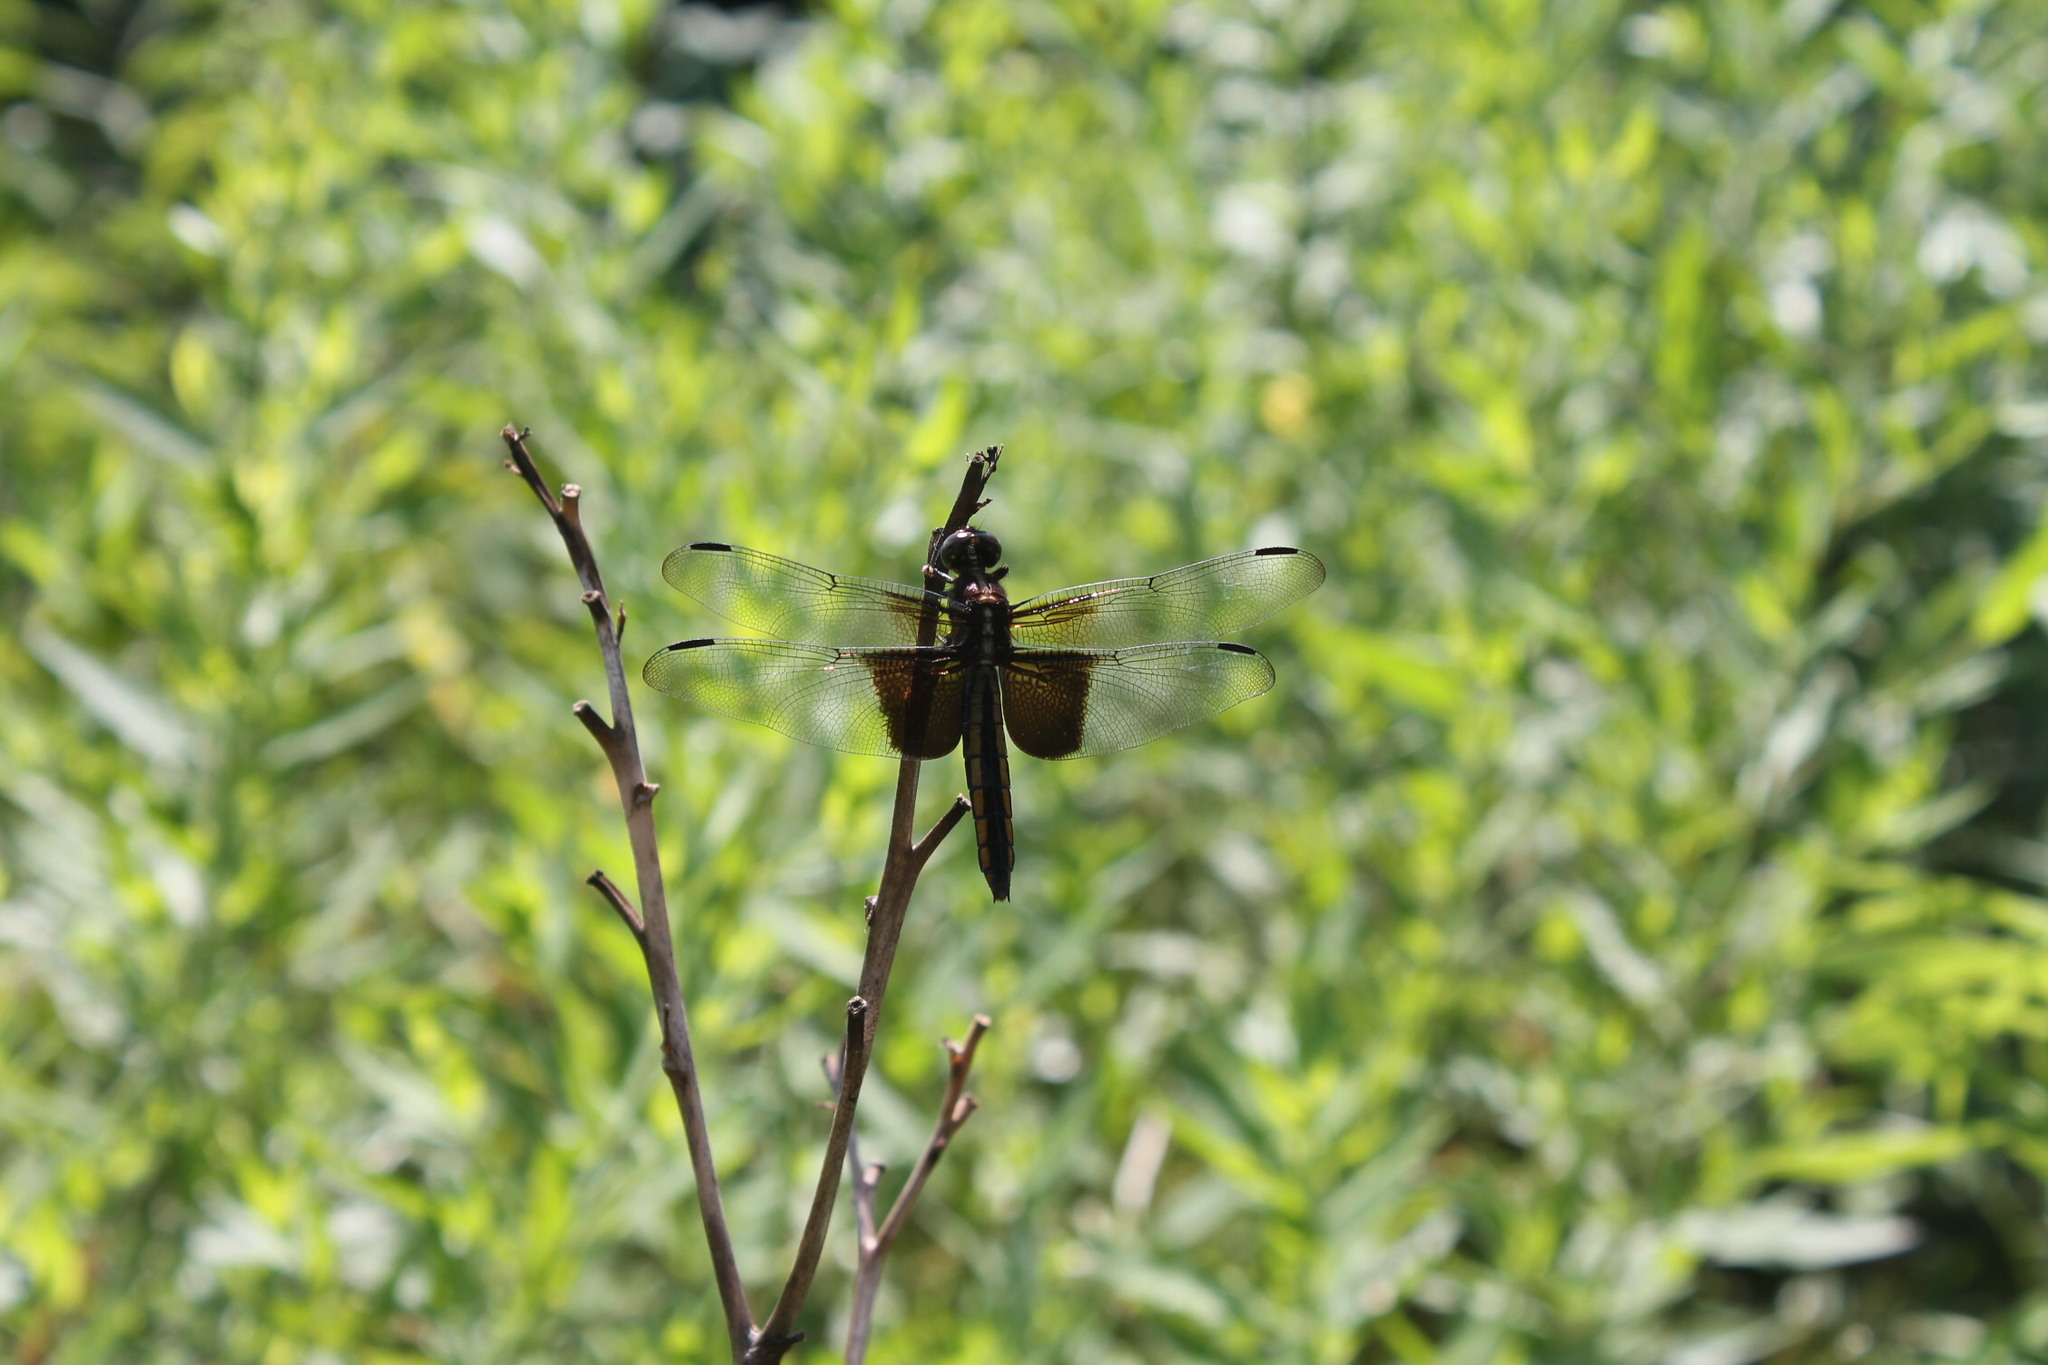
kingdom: Animalia
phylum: Arthropoda
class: Insecta
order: Odonata
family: Libellulidae
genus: Libellula
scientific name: Libellula luctuosa
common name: Widow skimmer
